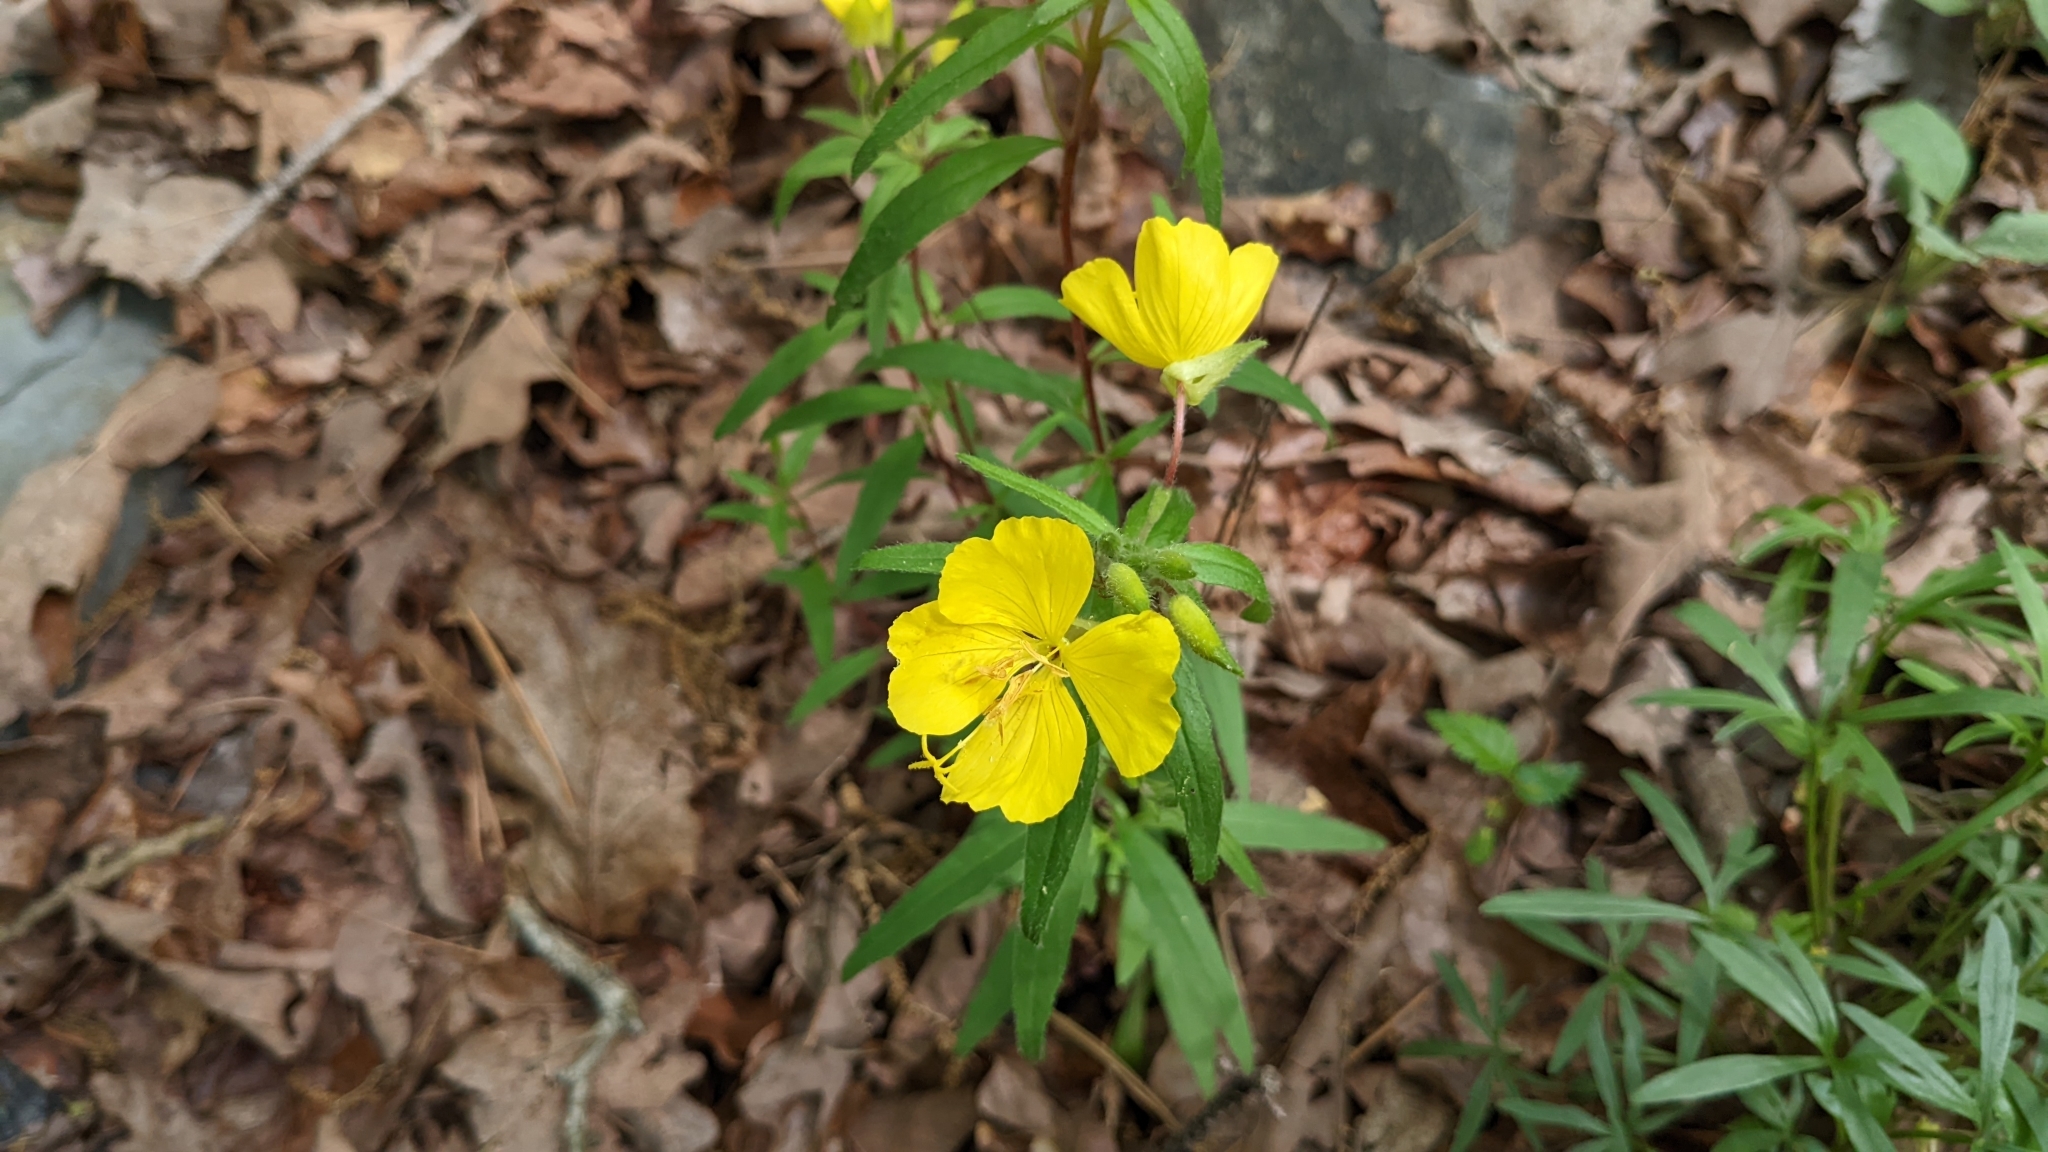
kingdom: Plantae
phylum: Tracheophyta
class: Magnoliopsida
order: Myrtales
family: Onagraceae
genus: Oenothera
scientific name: Oenothera fruticosa
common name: Southern sundrops
